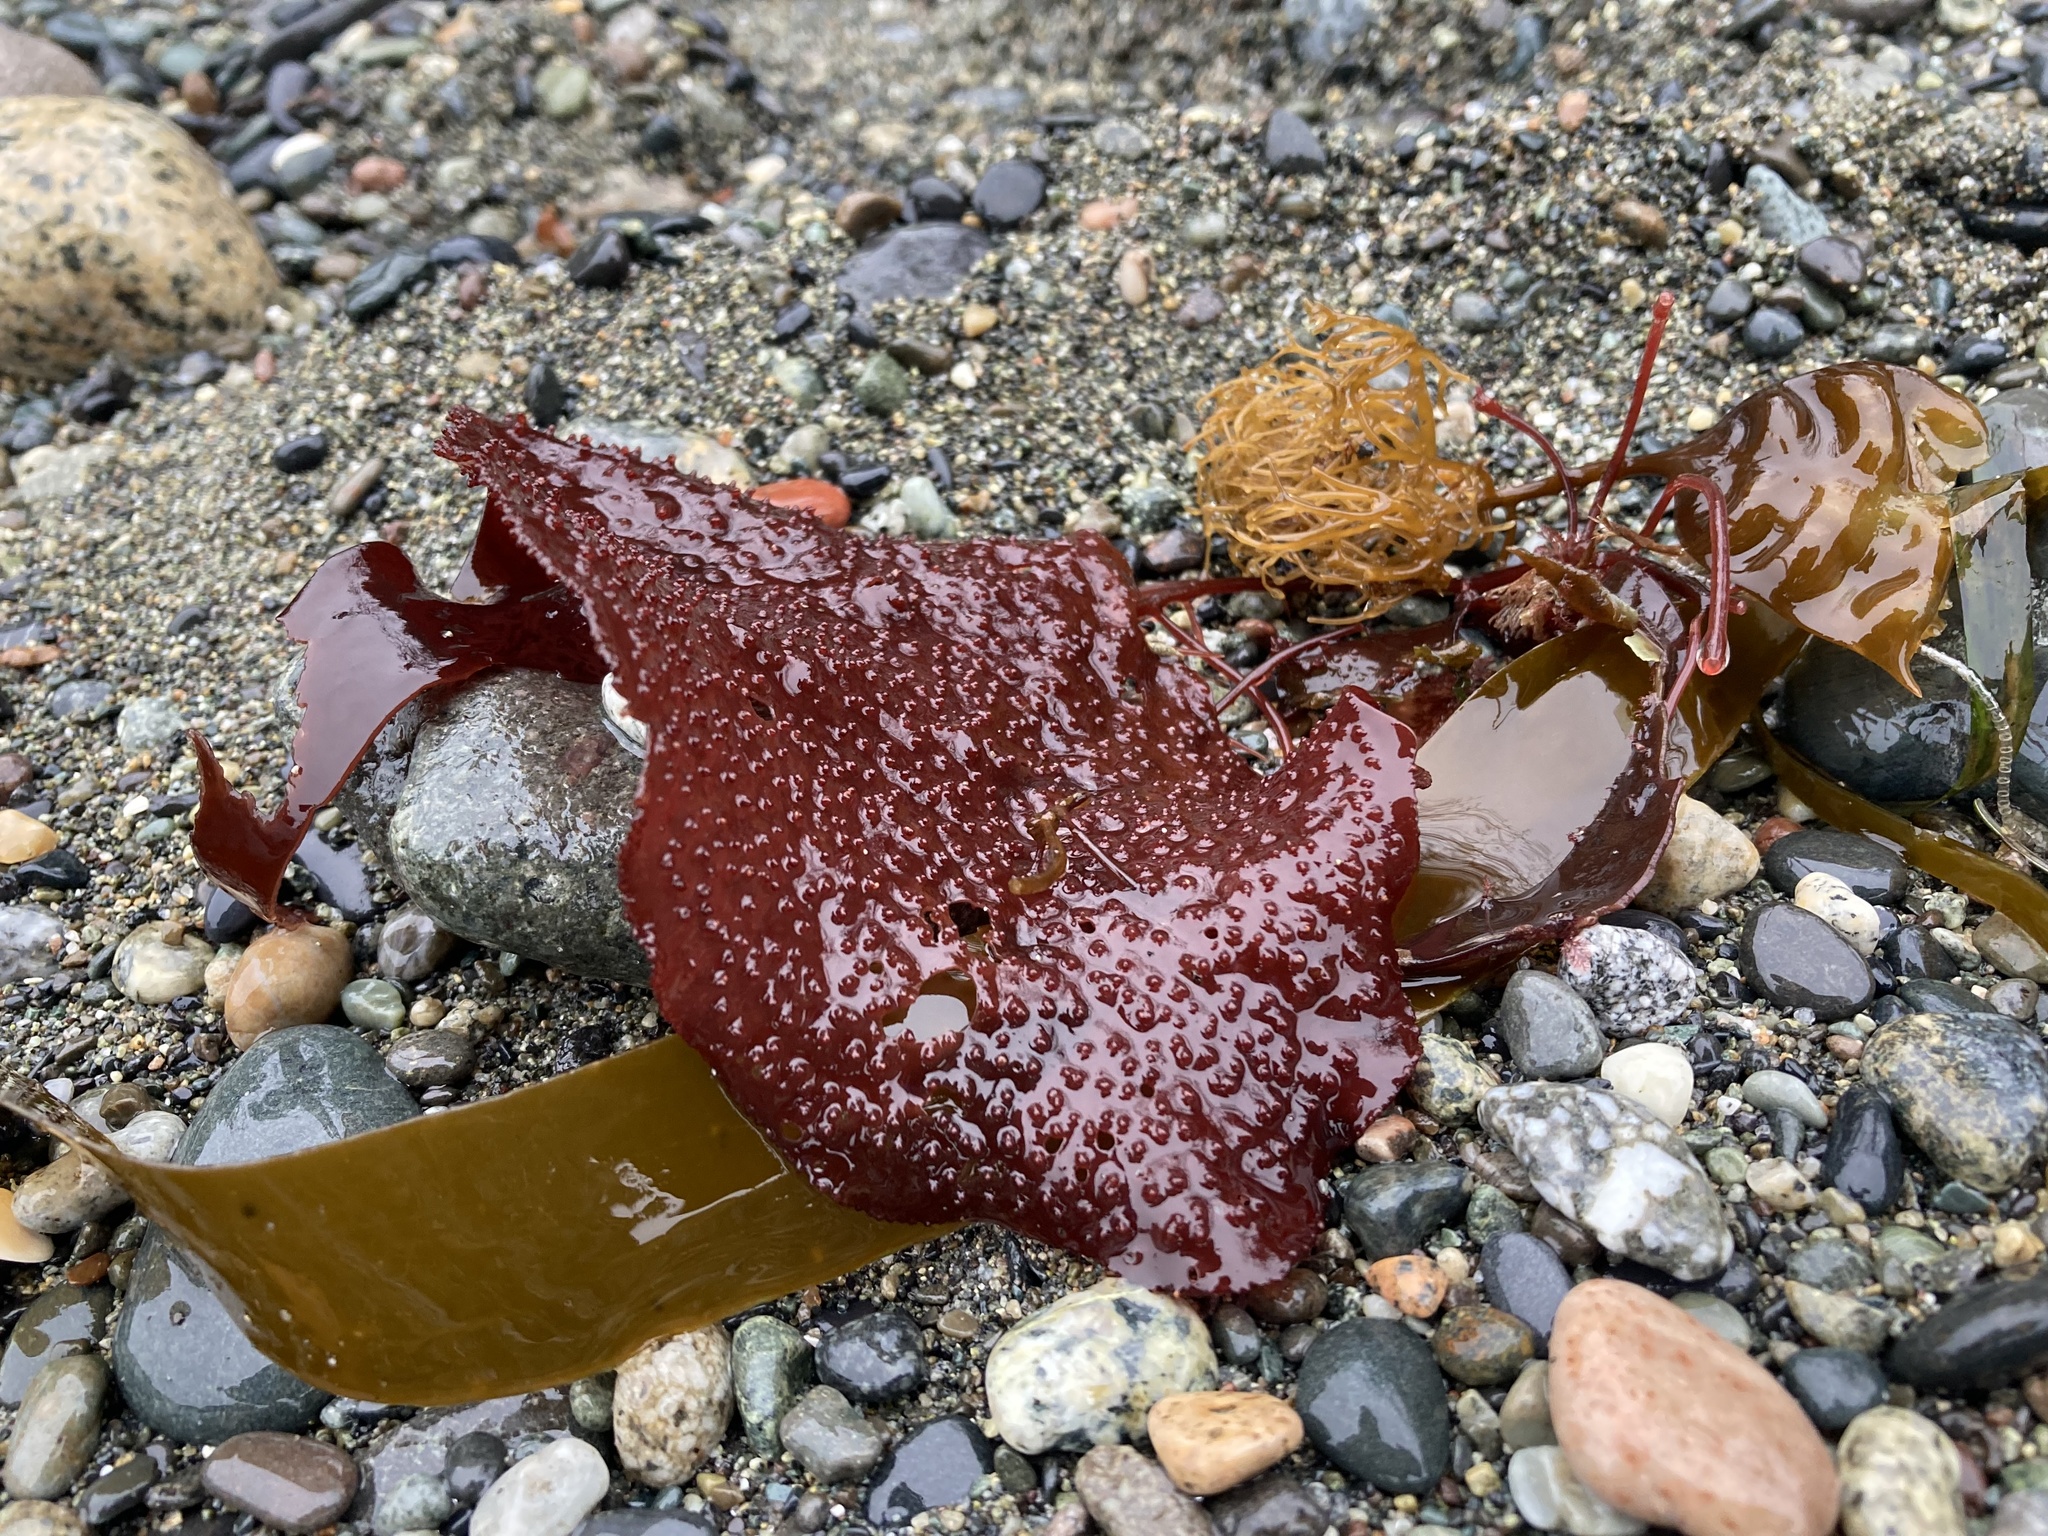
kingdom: Plantae
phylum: Rhodophyta
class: Florideophyceae
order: Gigartinales
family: Gigartinaceae
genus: Chondracanthus
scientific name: Chondracanthus exasperatus
